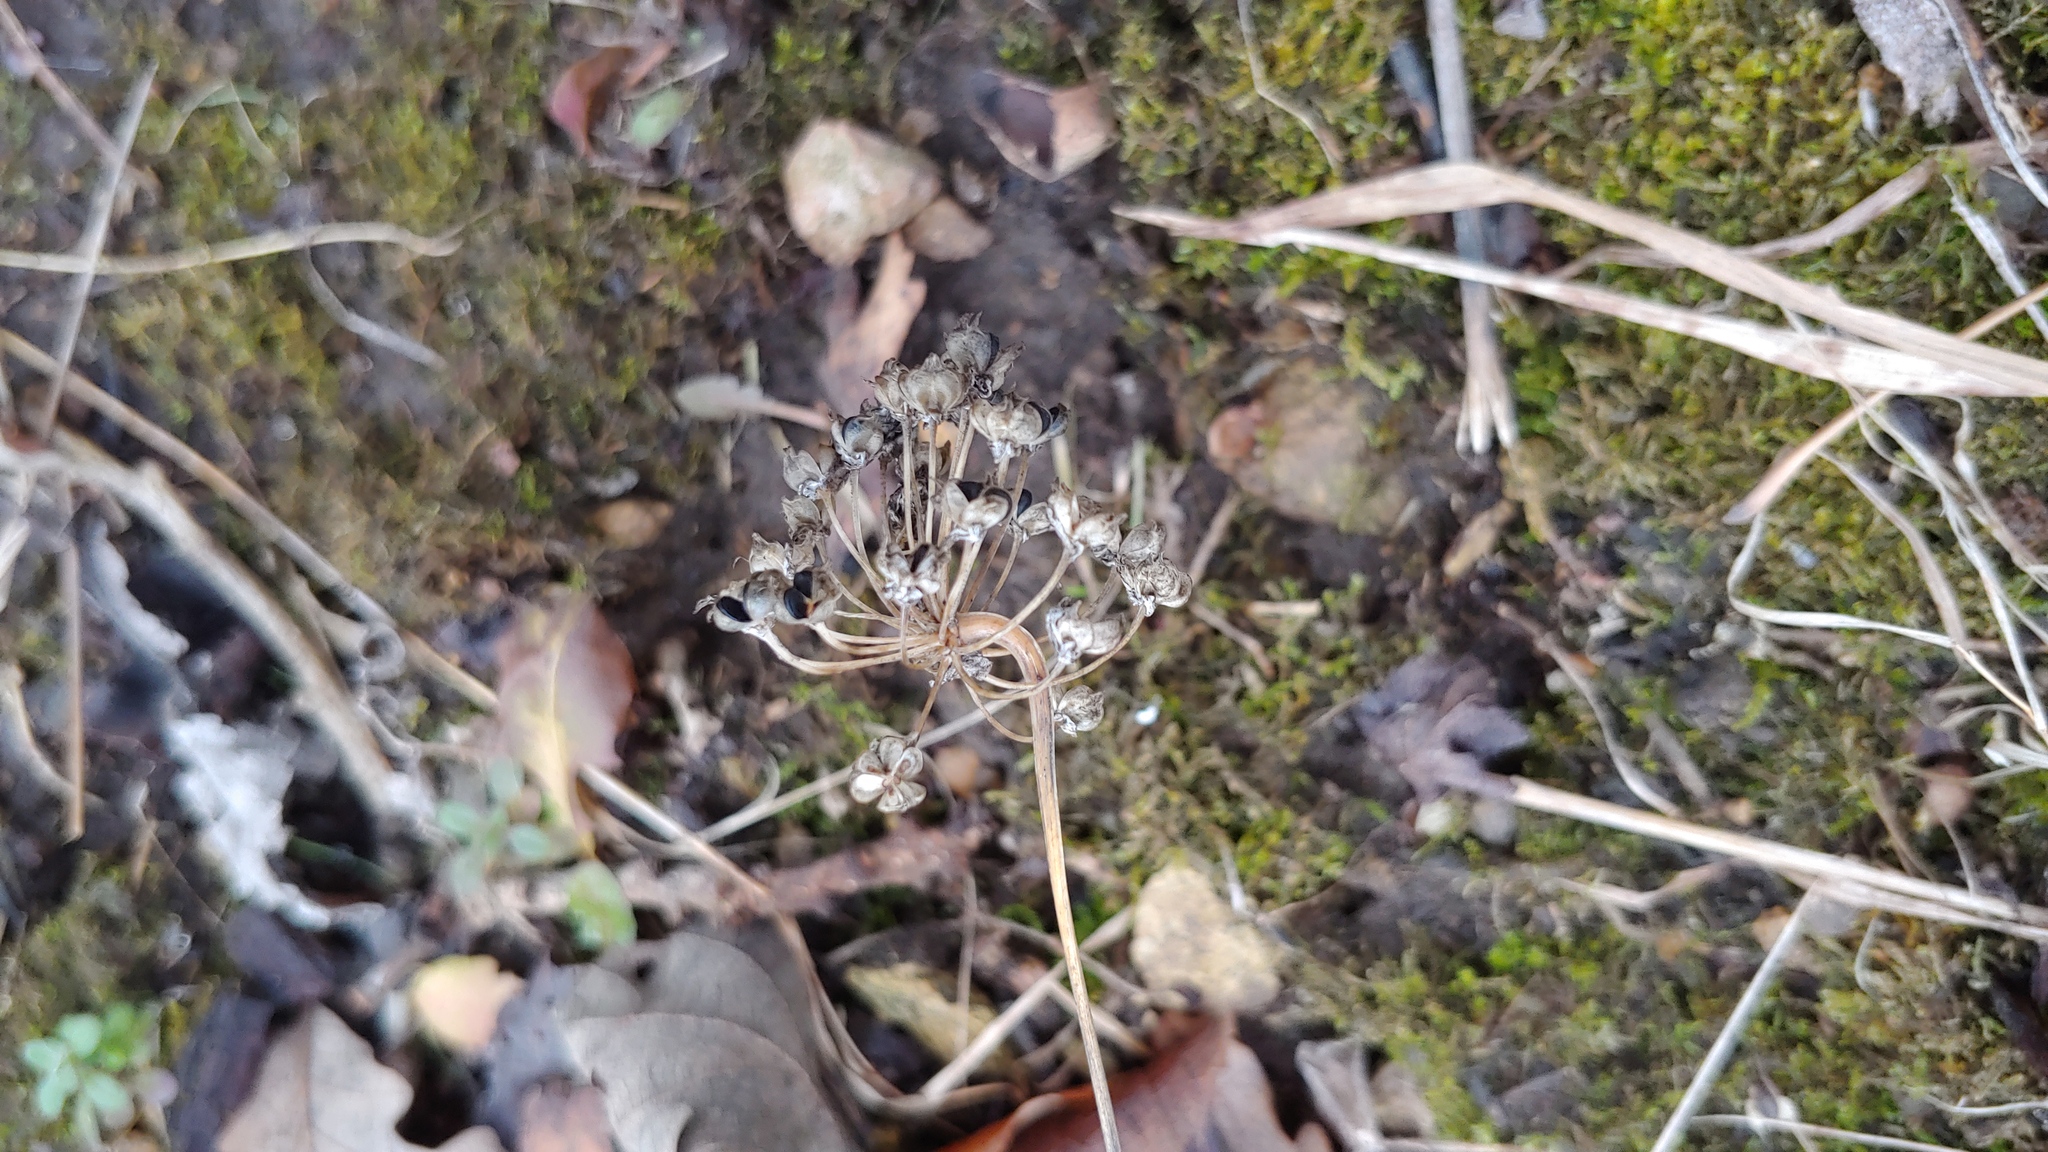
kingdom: Plantae
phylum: Tracheophyta
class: Liliopsida
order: Asparagales
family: Amaryllidaceae
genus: Allium
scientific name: Allium cernuum
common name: Nodding onion
